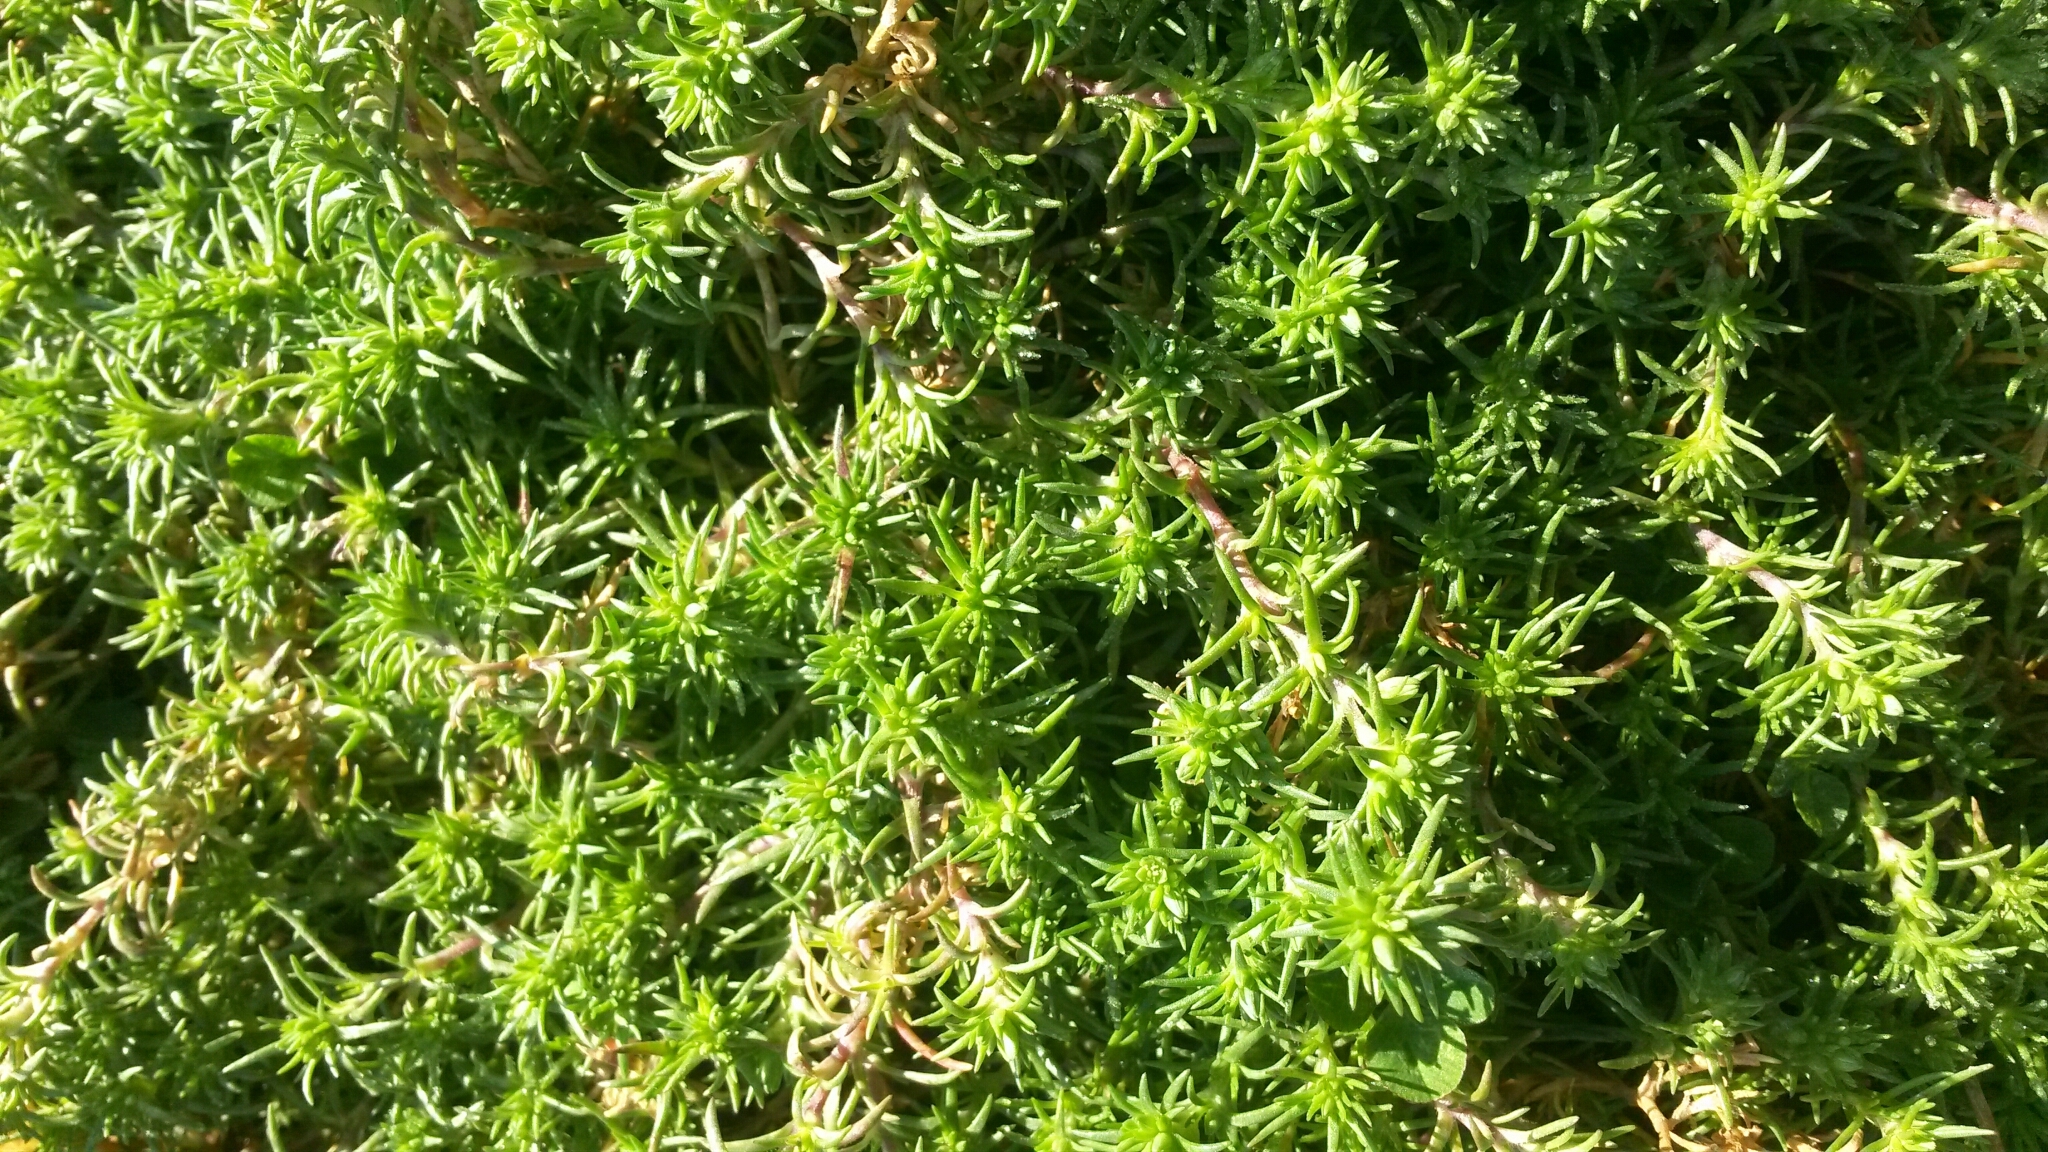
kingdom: Plantae
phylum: Tracheophyta
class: Magnoliopsida
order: Caryophyllales
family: Caryophyllaceae
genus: Scleranthus
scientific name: Scleranthus annuus
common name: Annual knawel
